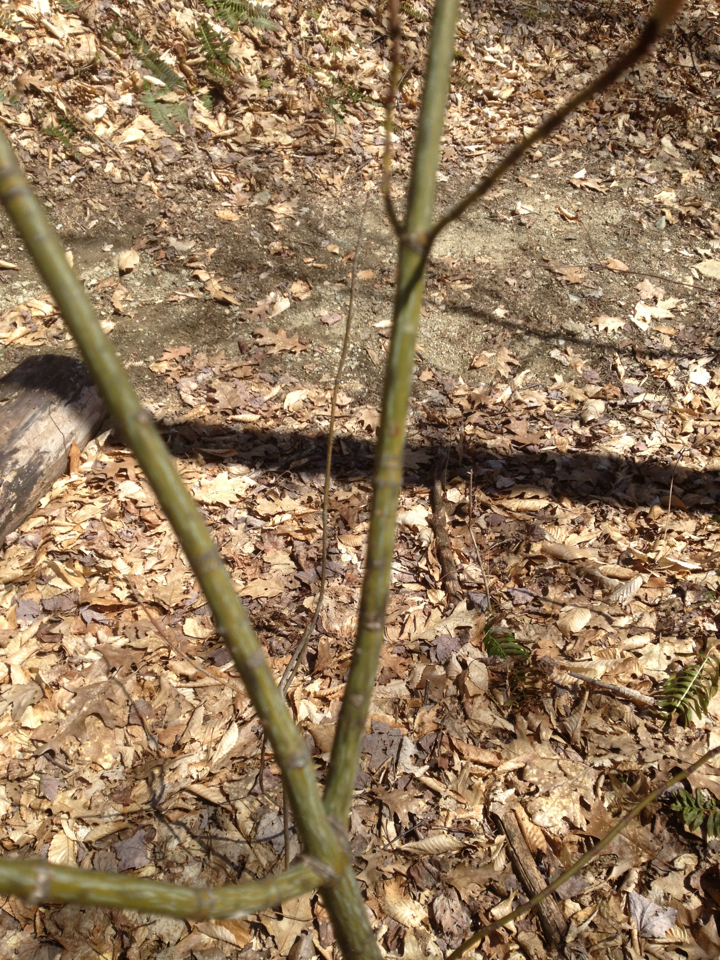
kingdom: Plantae
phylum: Tracheophyta
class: Magnoliopsida
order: Sapindales
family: Sapindaceae
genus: Acer
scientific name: Acer pensylvanicum
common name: Moosewood
